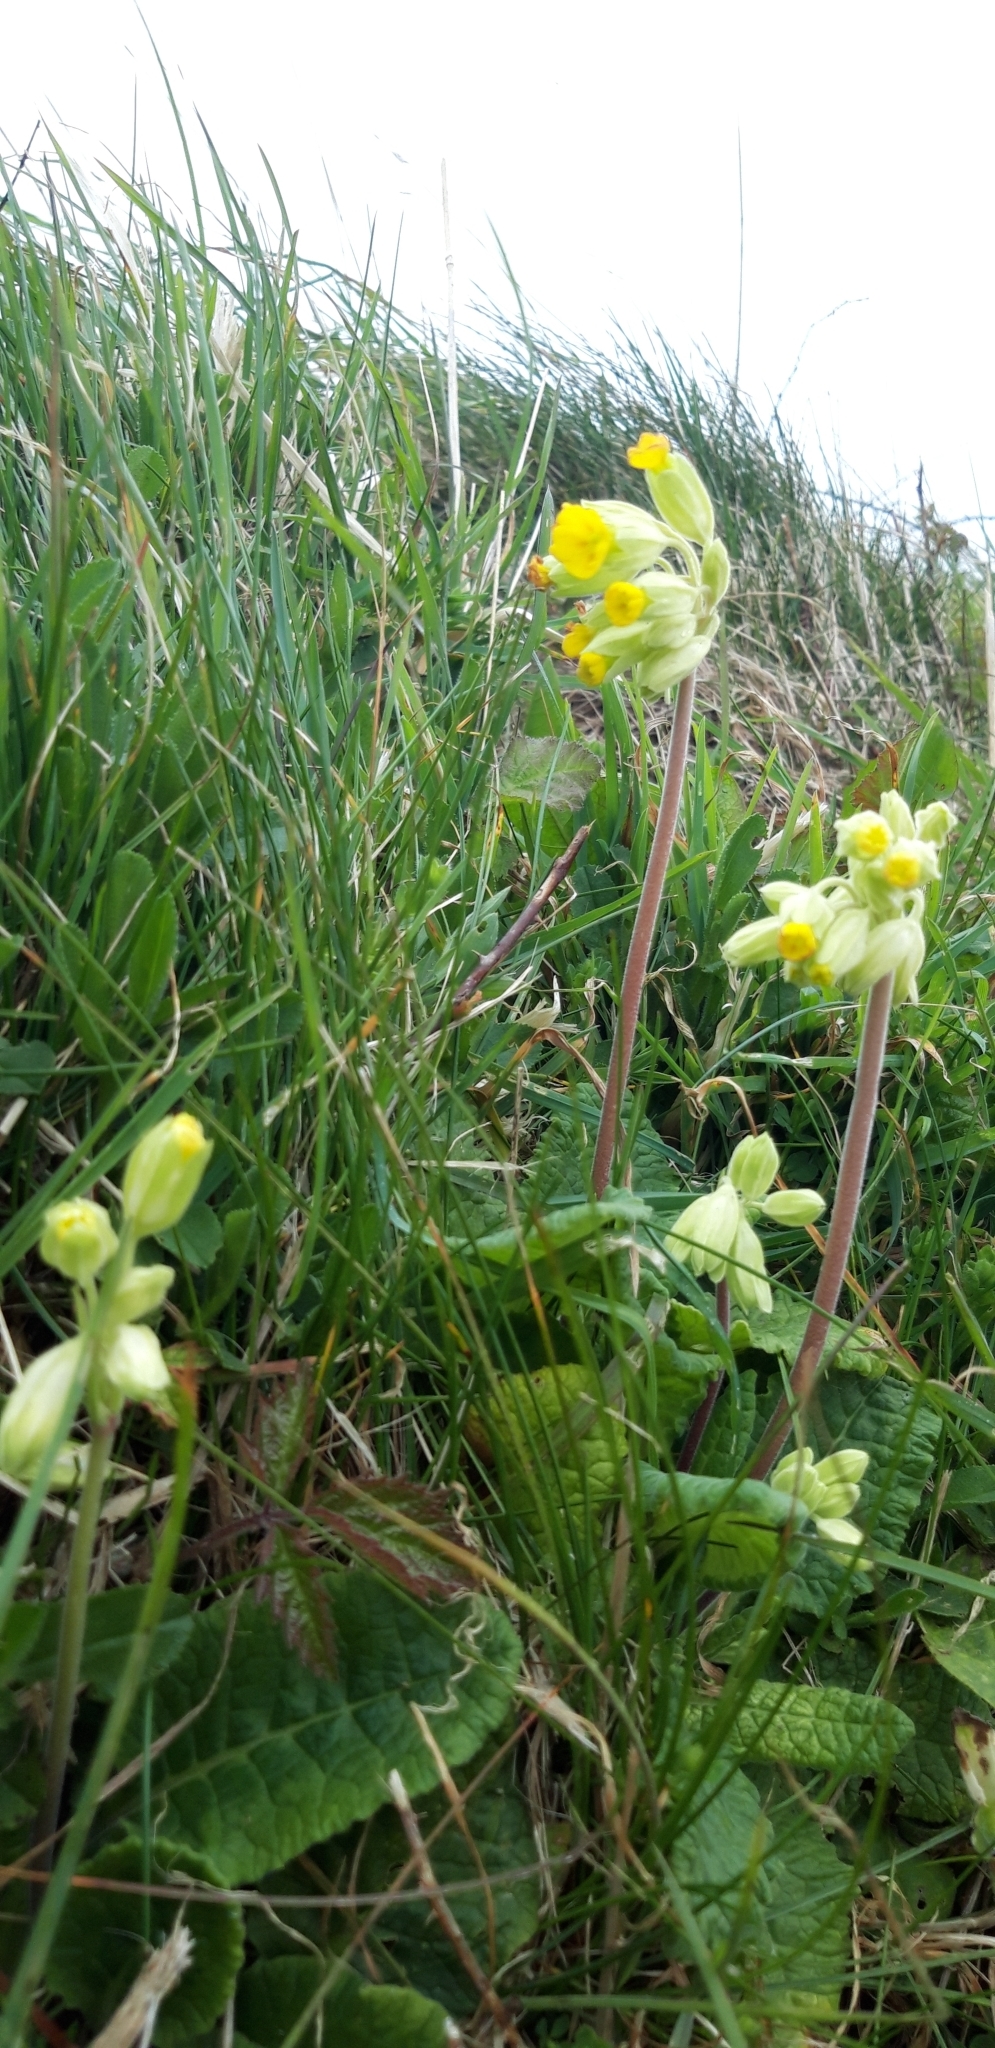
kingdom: Plantae
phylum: Tracheophyta
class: Magnoliopsida
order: Ericales
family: Primulaceae
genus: Primula
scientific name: Primula veris
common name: Cowslip
